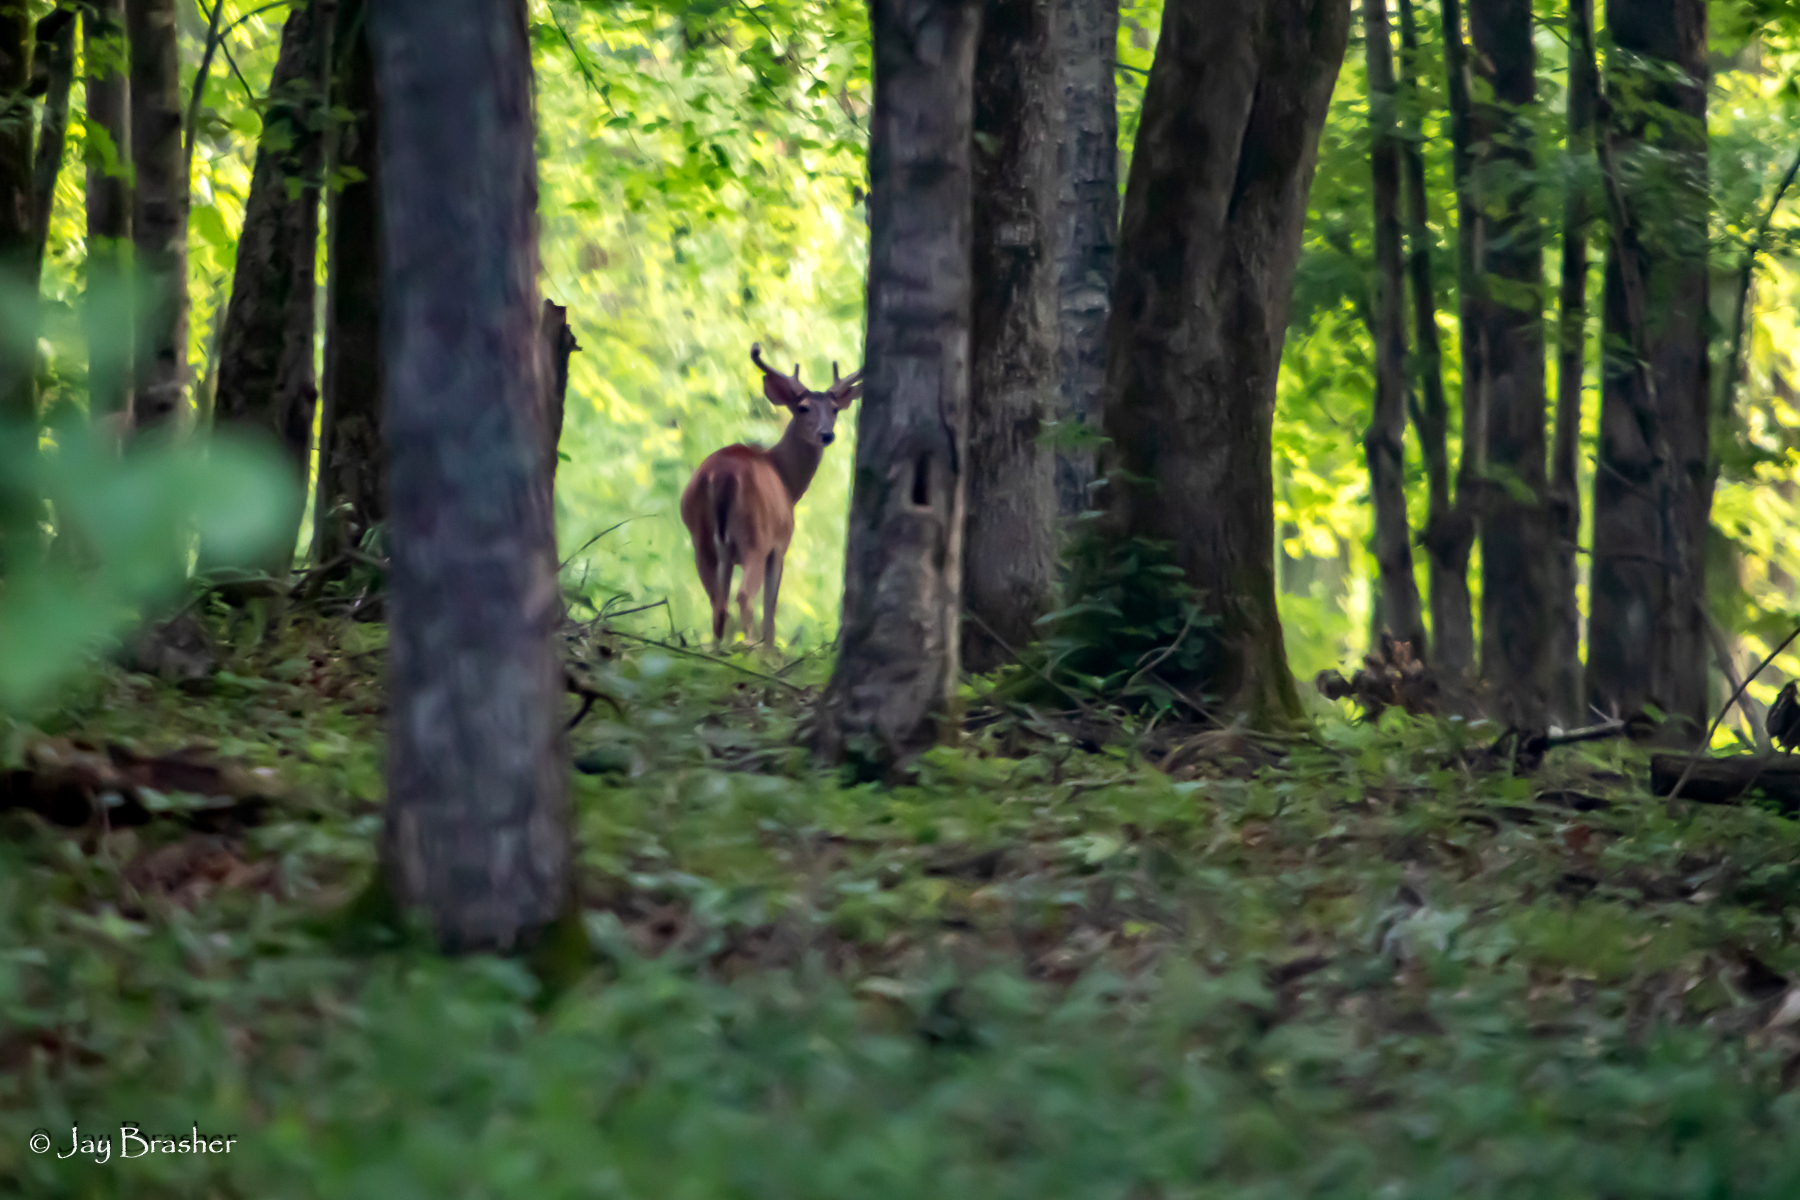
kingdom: Animalia
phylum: Chordata
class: Mammalia
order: Artiodactyla
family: Cervidae
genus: Odocoileus
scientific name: Odocoileus virginianus
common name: White-tailed deer
